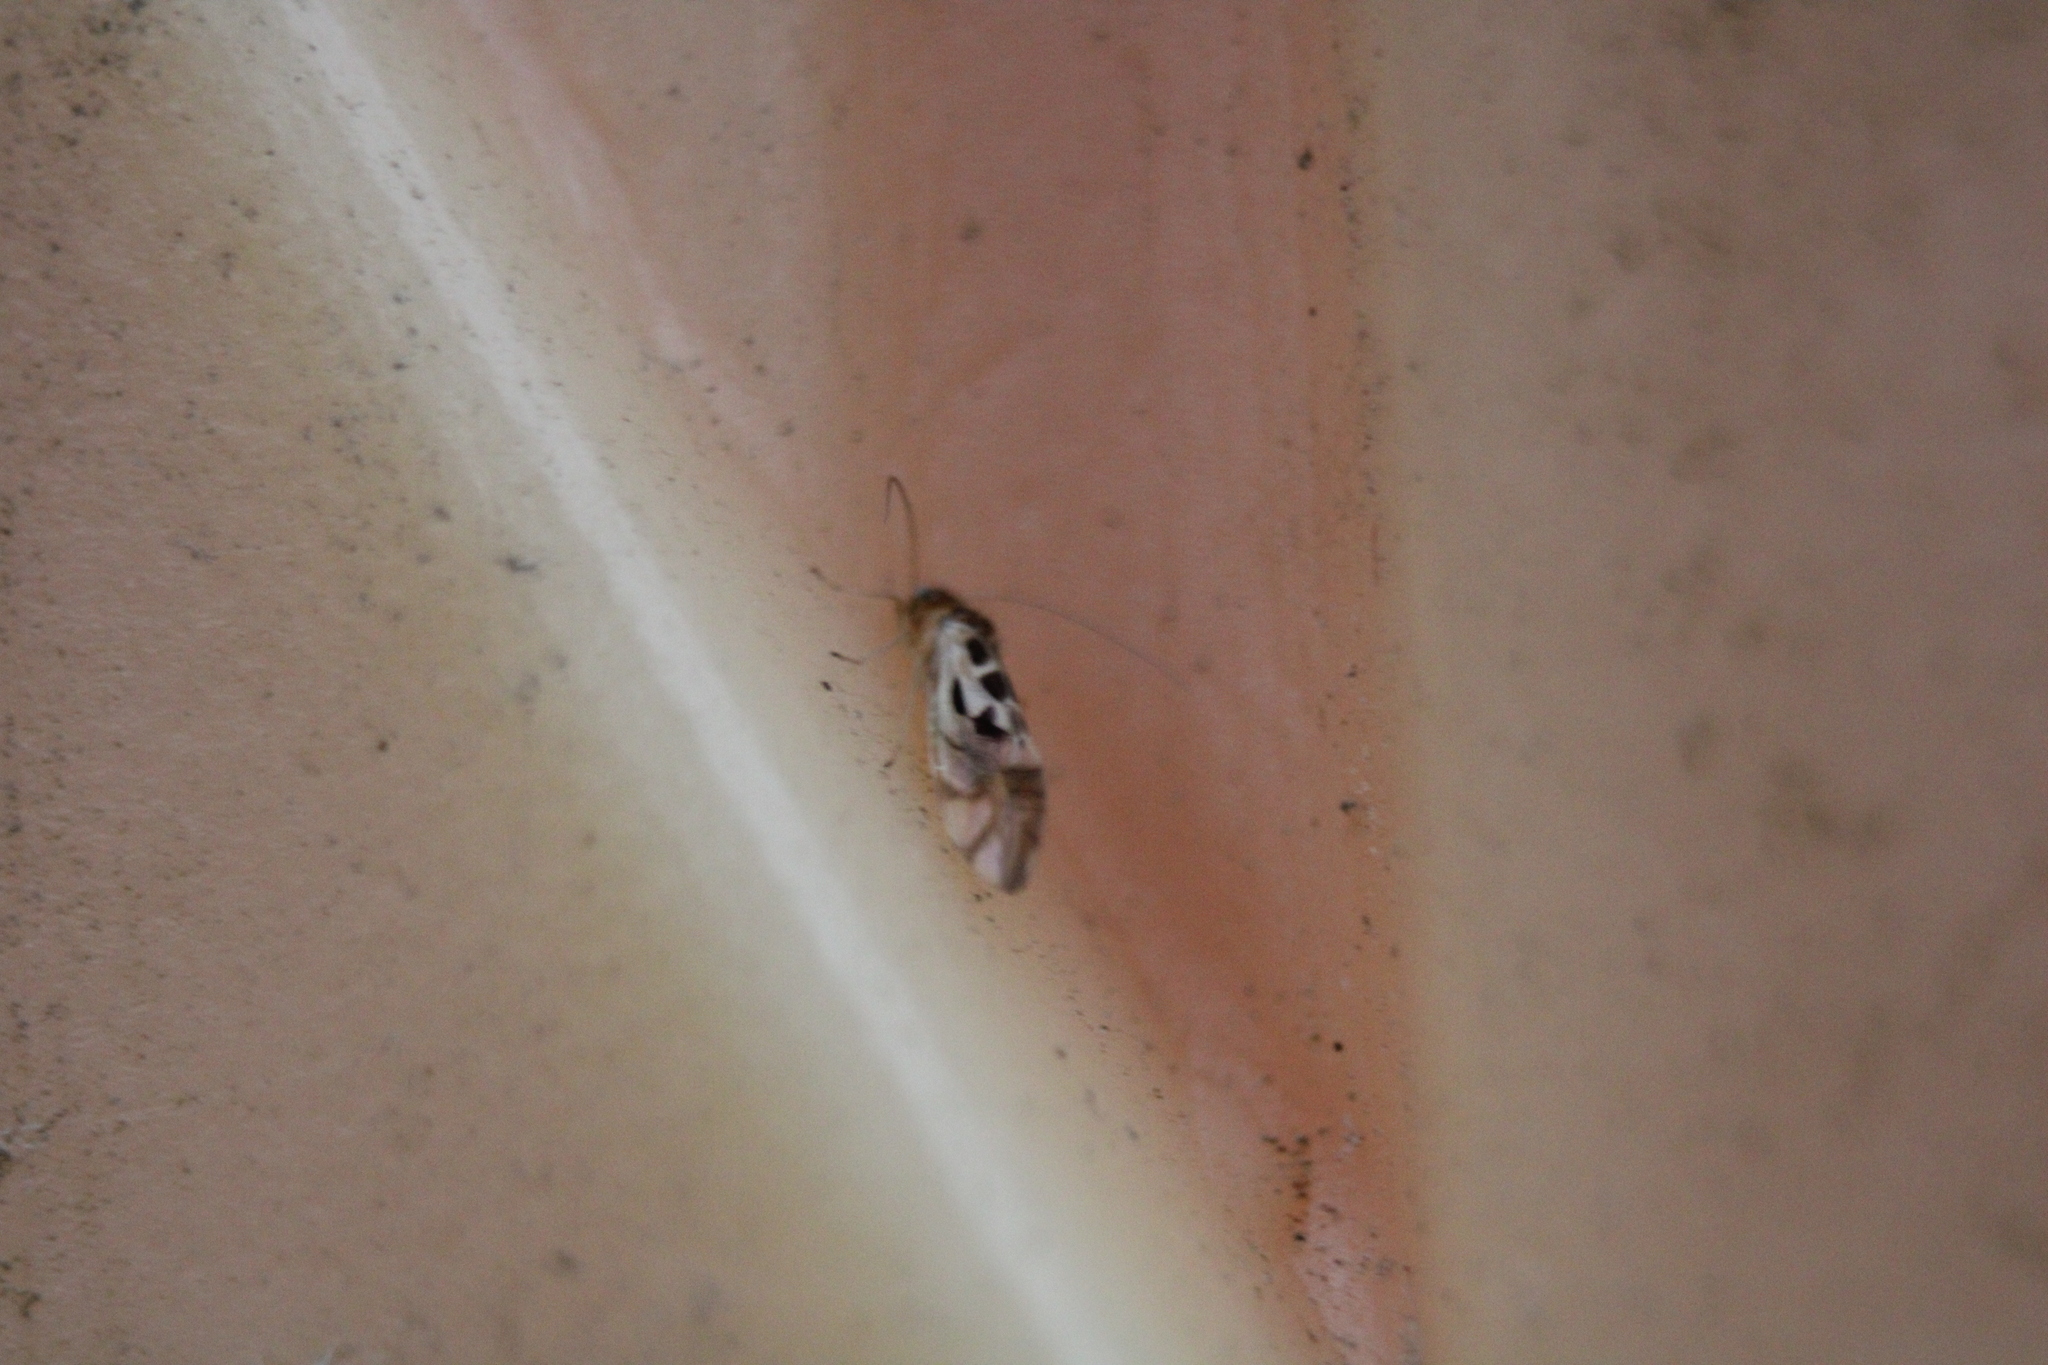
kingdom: Animalia
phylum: Arthropoda
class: Insecta
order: Psocodea
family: Stenopsocidae
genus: Graphopsocus
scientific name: Graphopsocus cruciatus
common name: Lizard bark louse
